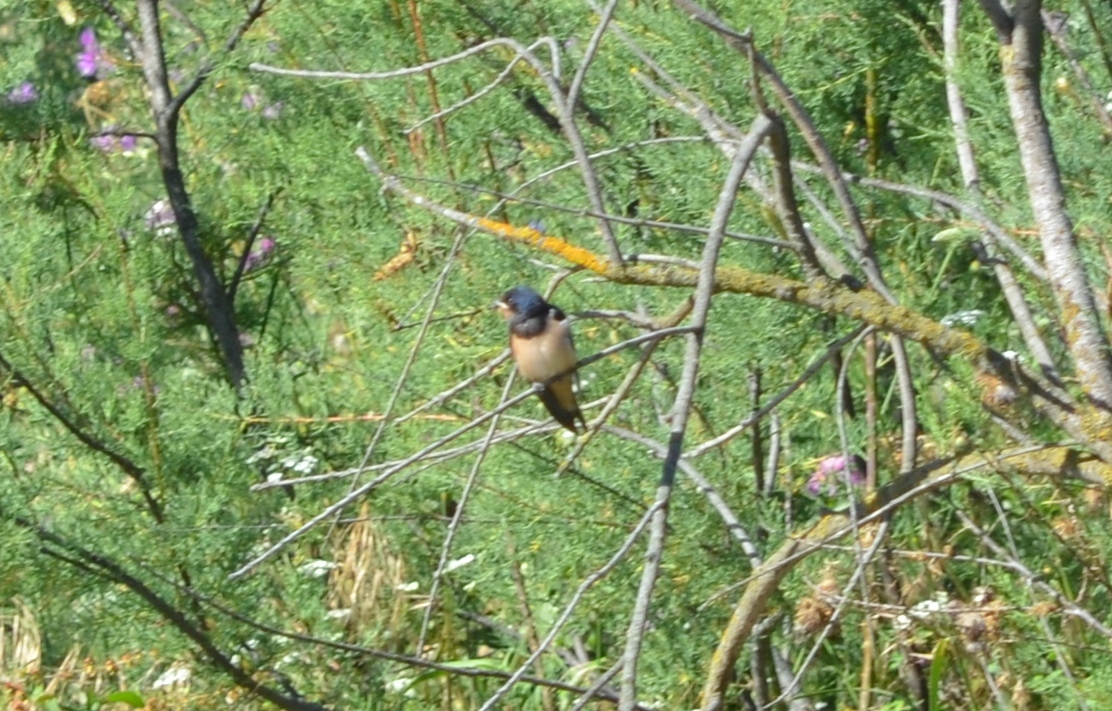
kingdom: Animalia
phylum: Chordata
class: Aves
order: Passeriformes
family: Hirundinidae
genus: Hirundo
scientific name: Hirundo rustica
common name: Barn swallow
